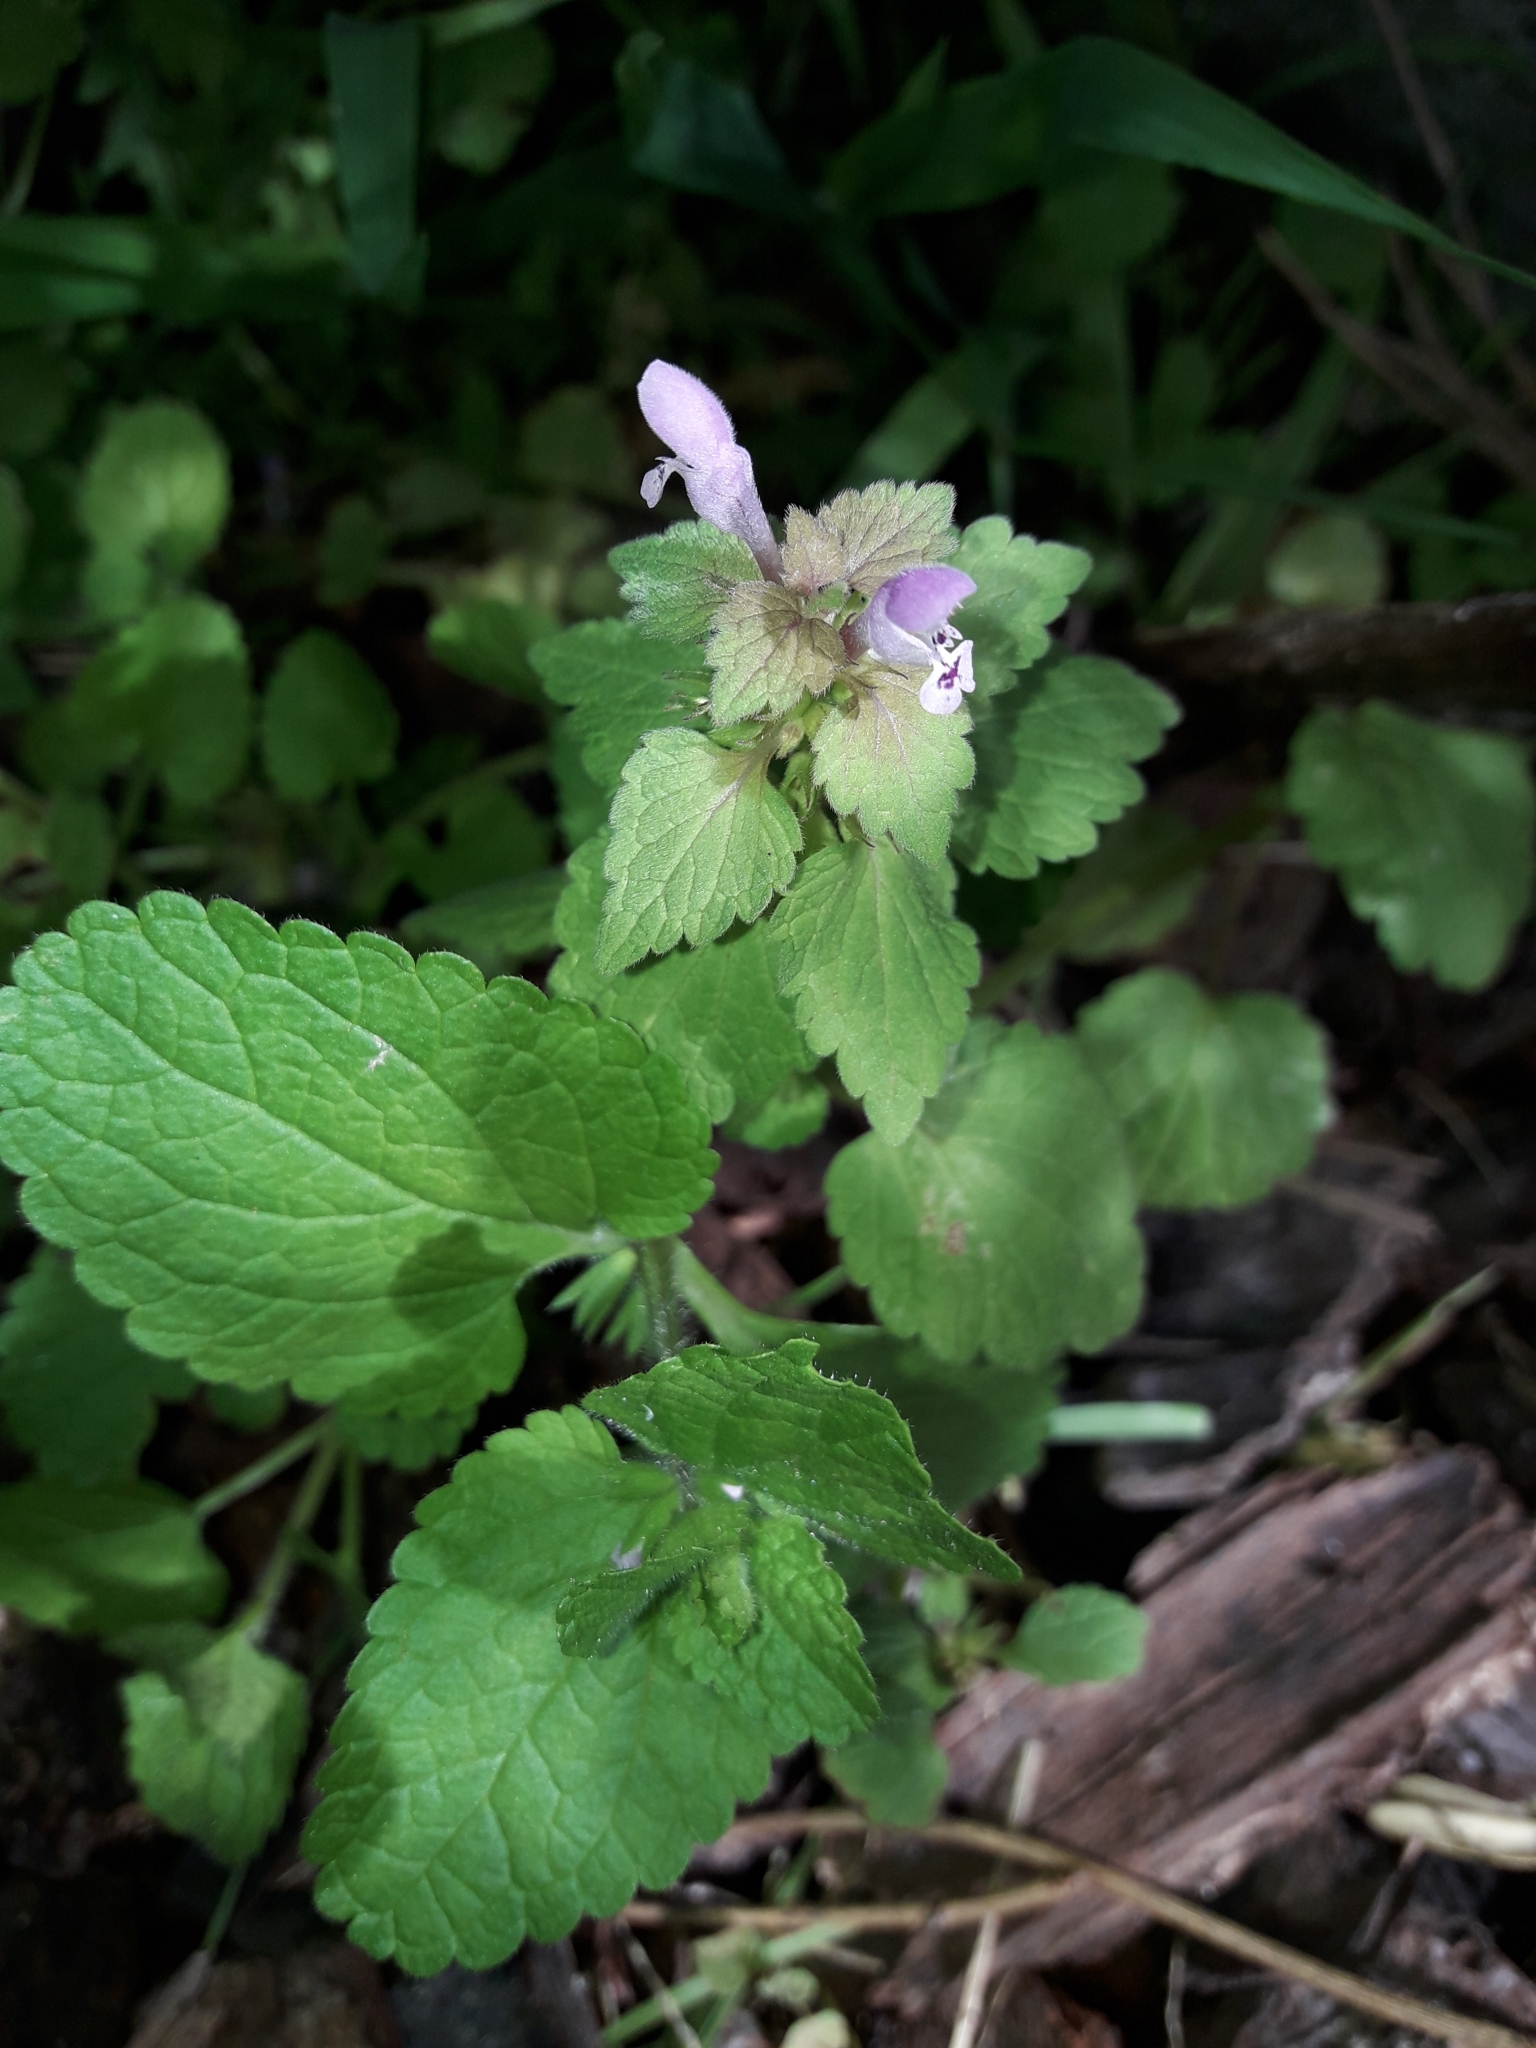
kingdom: Plantae
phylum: Tracheophyta
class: Magnoliopsida
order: Lamiales
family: Lamiaceae
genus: Lamium
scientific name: Lamium purpureum
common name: Red dead-nettle
